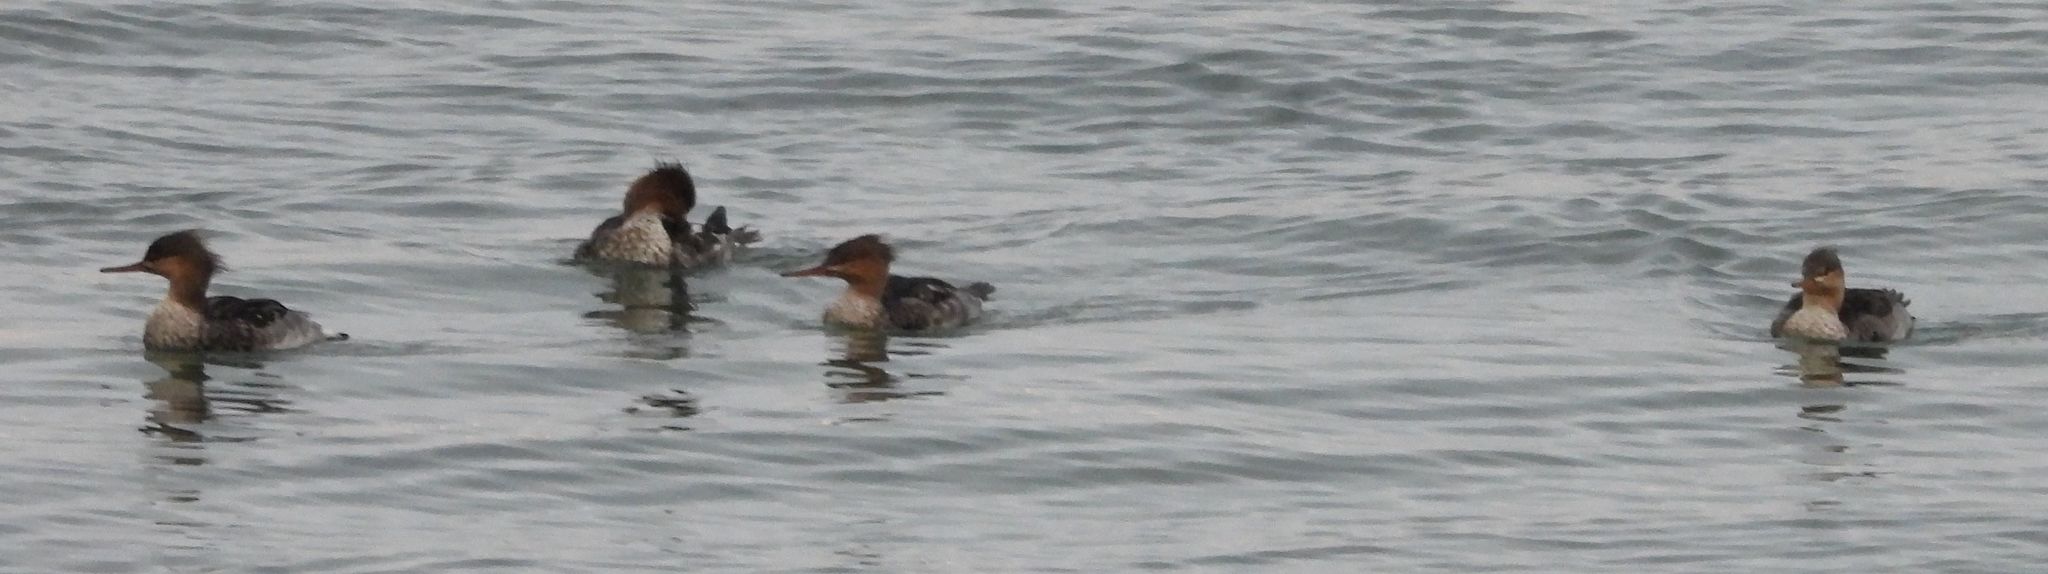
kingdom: Animalia
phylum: Chordata
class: Aves
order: Anseriformes
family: Anatidae
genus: Mergus
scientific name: Mergus serrator
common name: Red-breasted merganser
